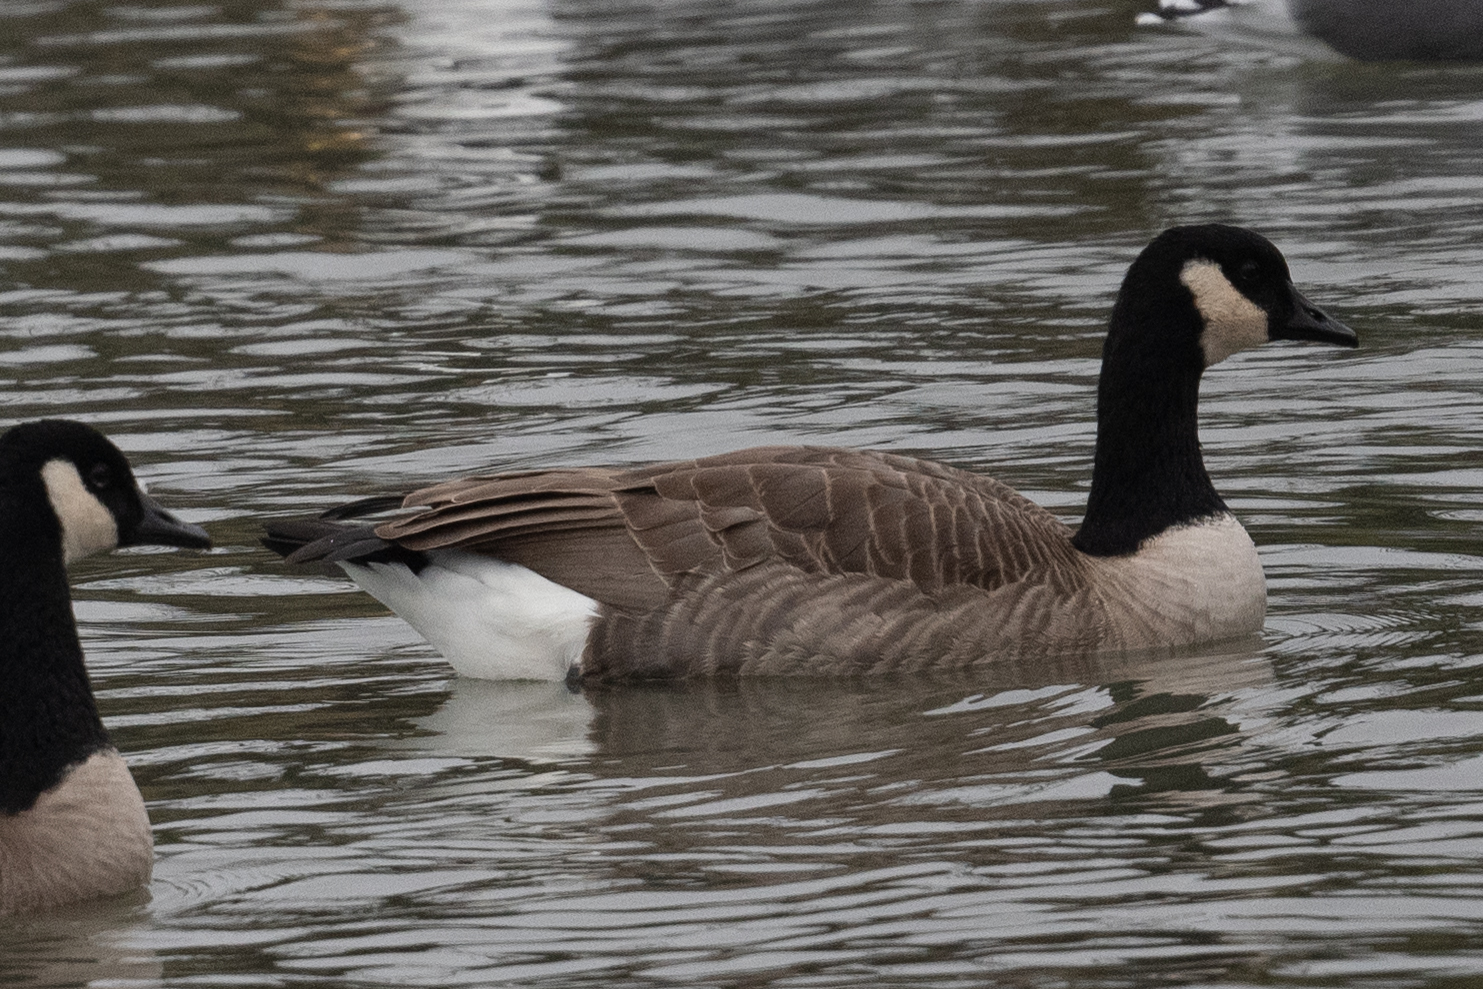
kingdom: Animalia
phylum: Chordata
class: Aves
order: Anseriformes
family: Anatidae
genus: Branta
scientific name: Branta canadensis
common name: Canada goose
